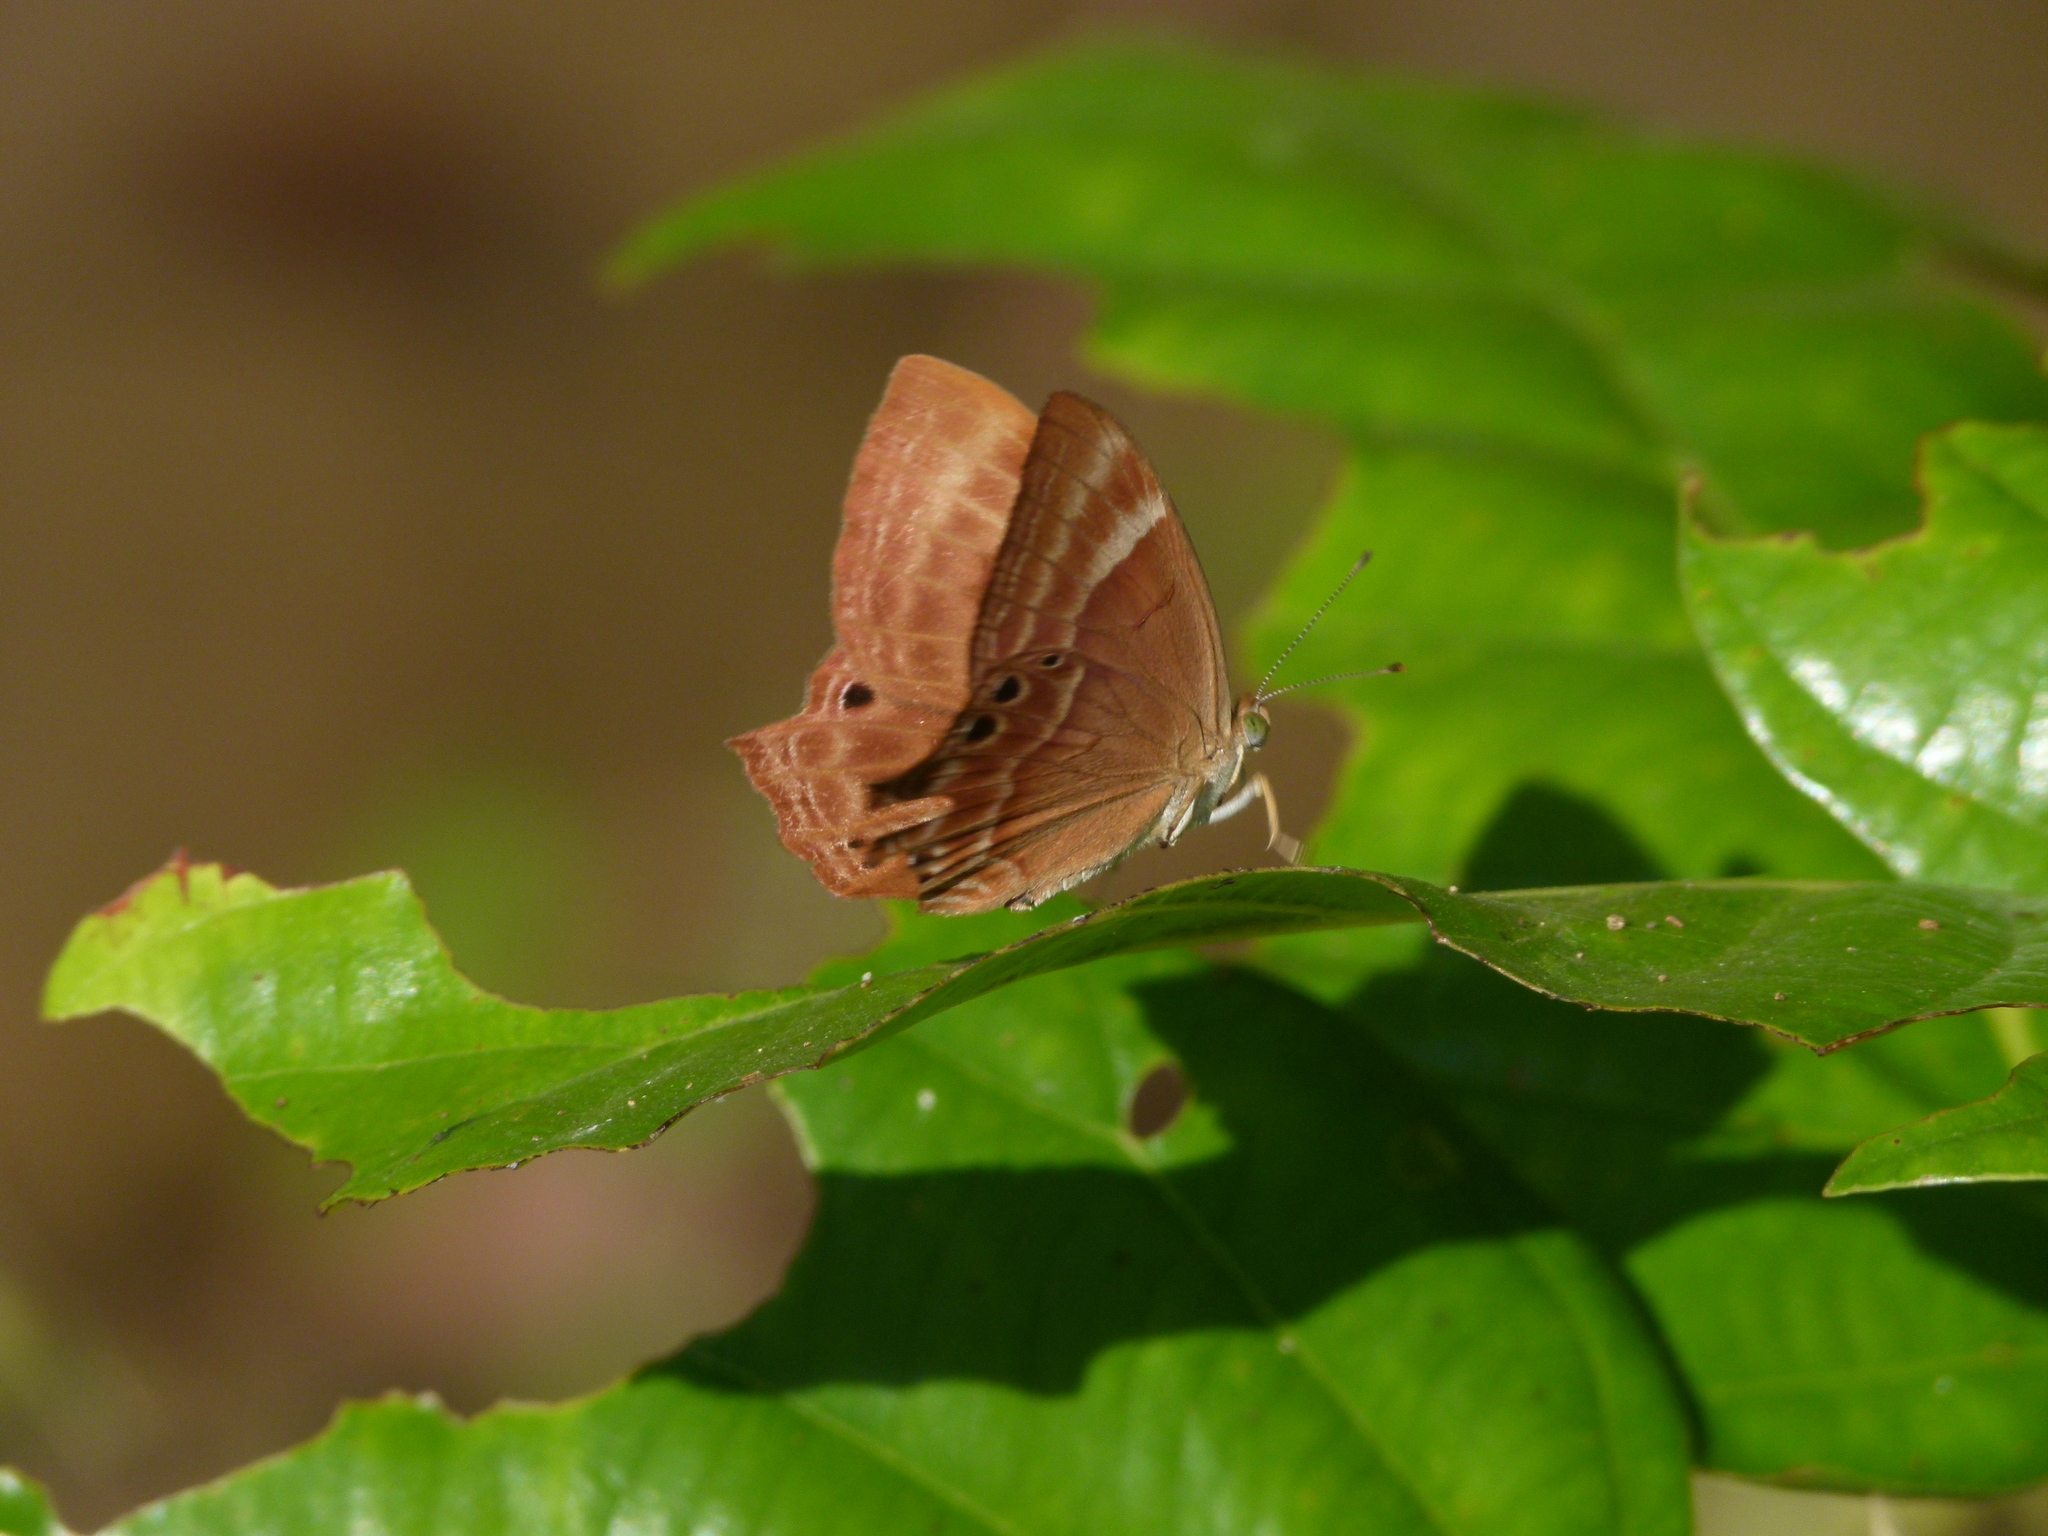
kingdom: Animalia
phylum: Arthropoda
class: Insecta
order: Lepidoptera
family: Lycaenidae
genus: Abisara
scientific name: Abisara echeria
